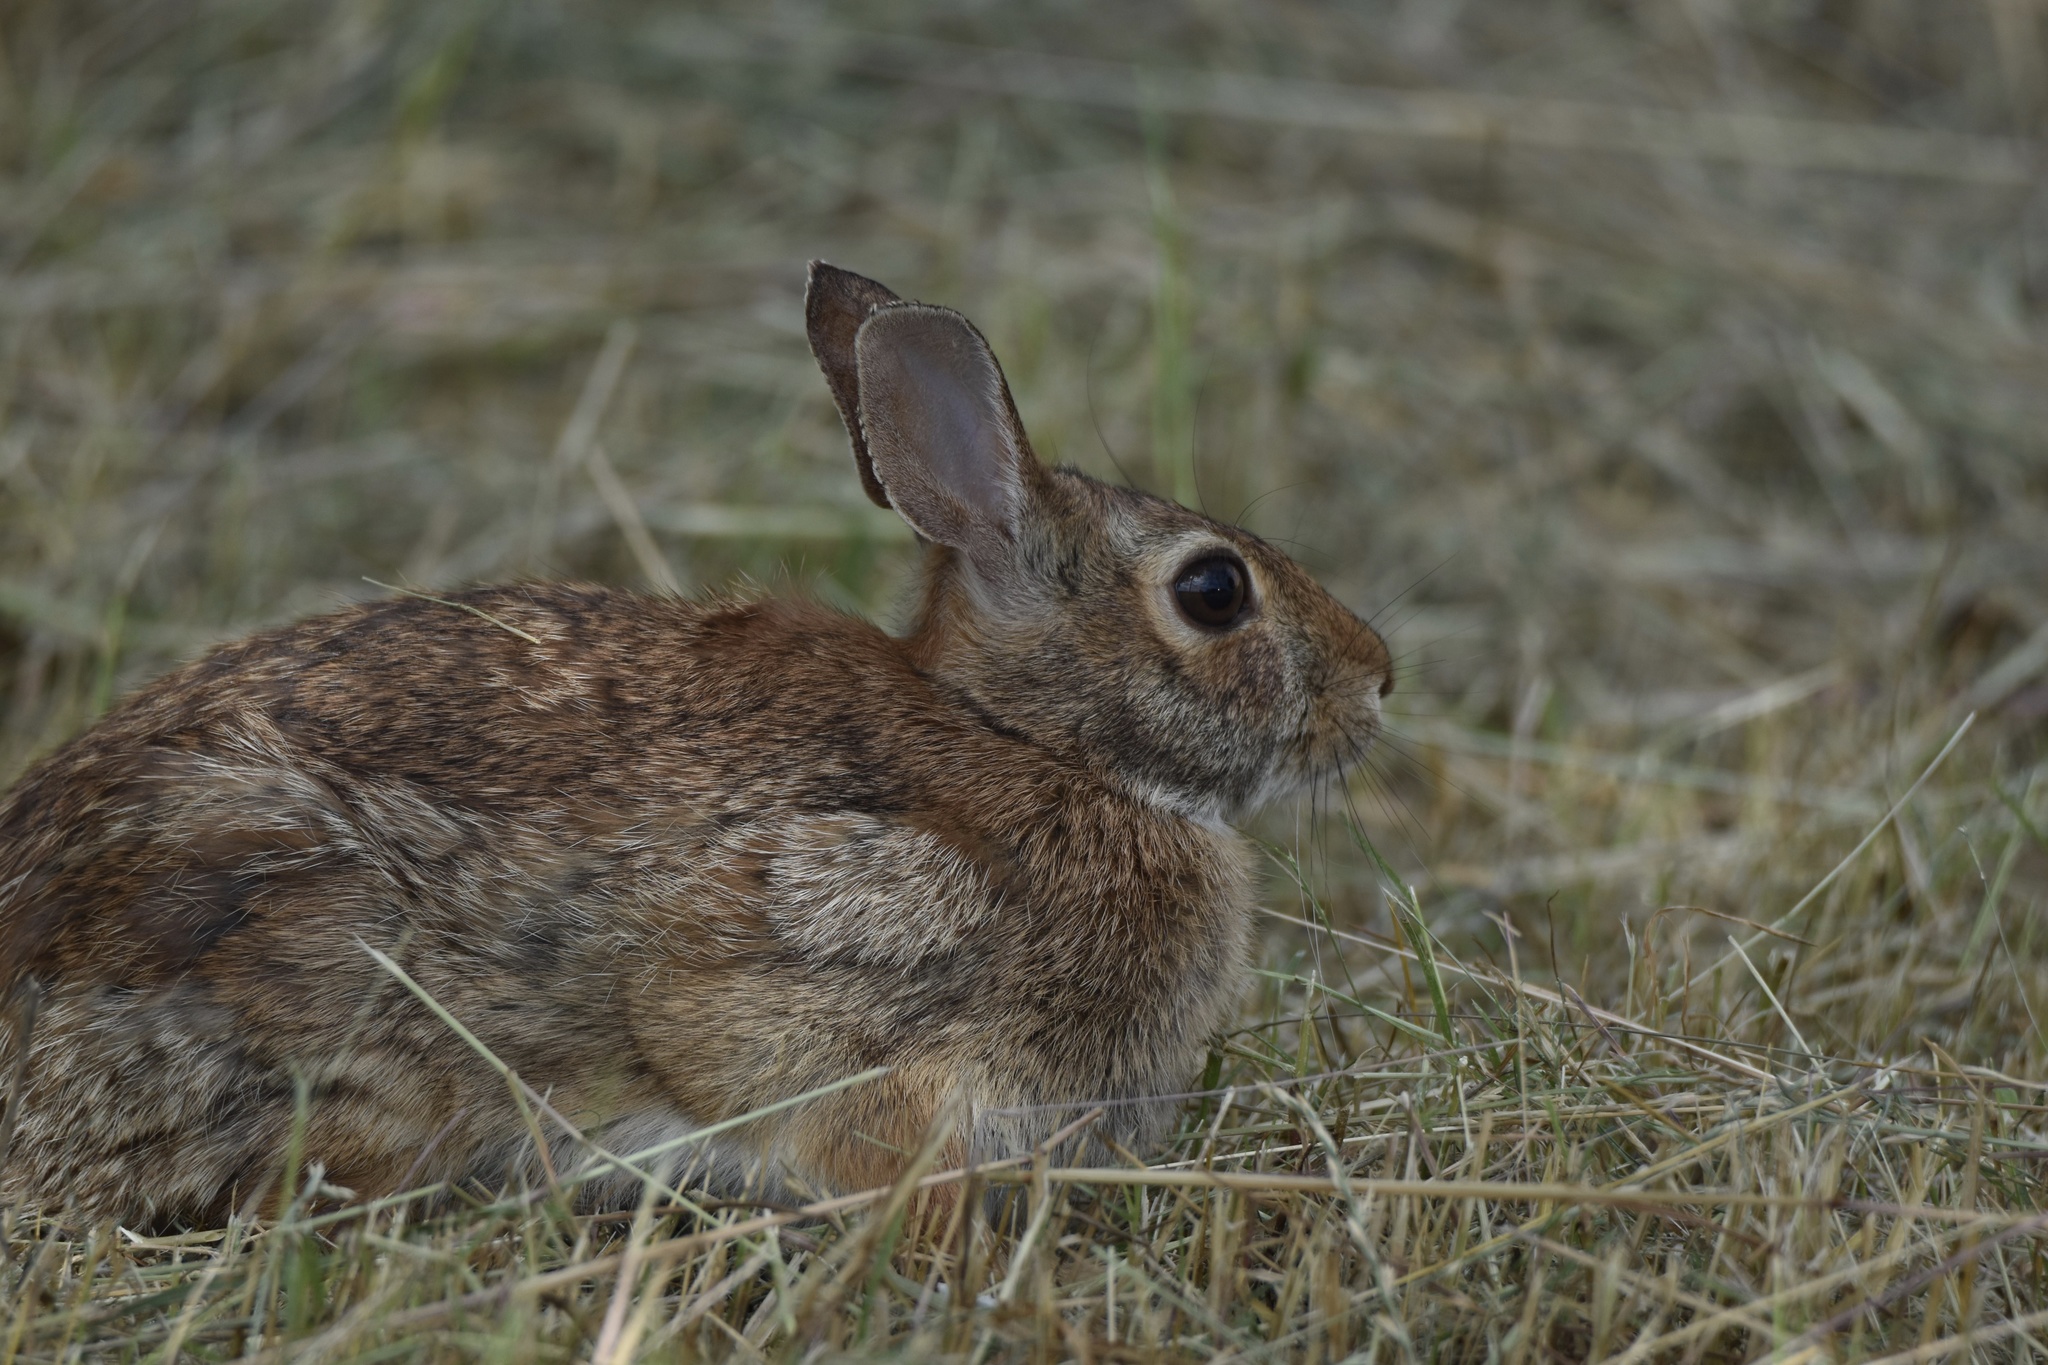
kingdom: Animalia
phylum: Chordata
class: Mammalia
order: Lagomorpha
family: Leporidae
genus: Sylvilagus
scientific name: Sylvilagus floridanus
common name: Eastern cottontail
